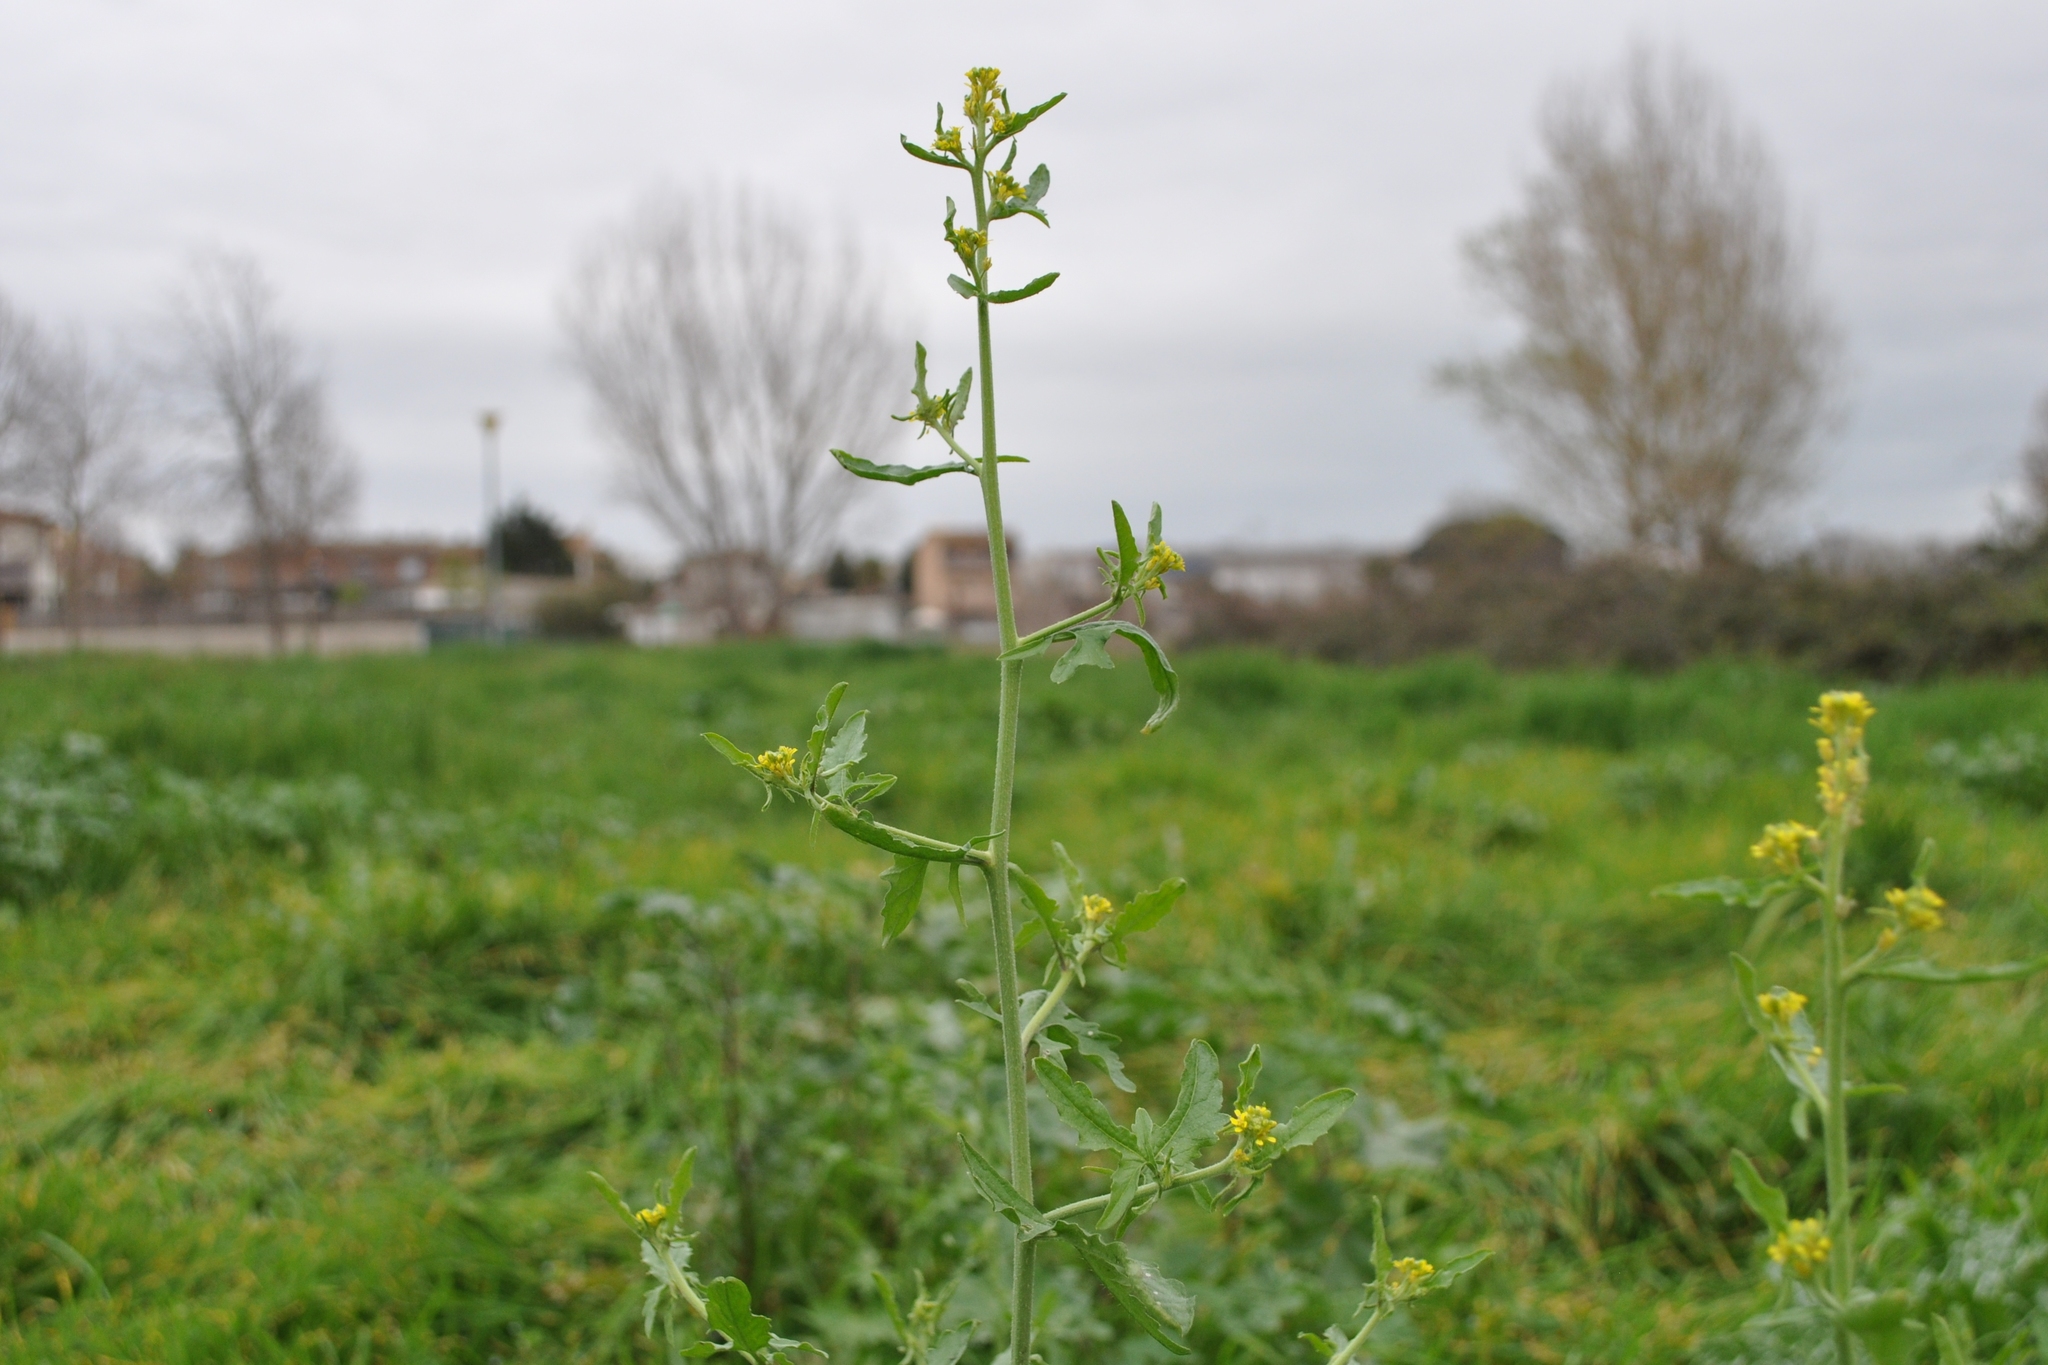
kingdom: Plantae
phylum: Tracheophyta
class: Magnoliopsida
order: Brassicales
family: Brassicaceae
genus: Sisymbrium
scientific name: Sisymbrium officinale
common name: Hedge mustard
